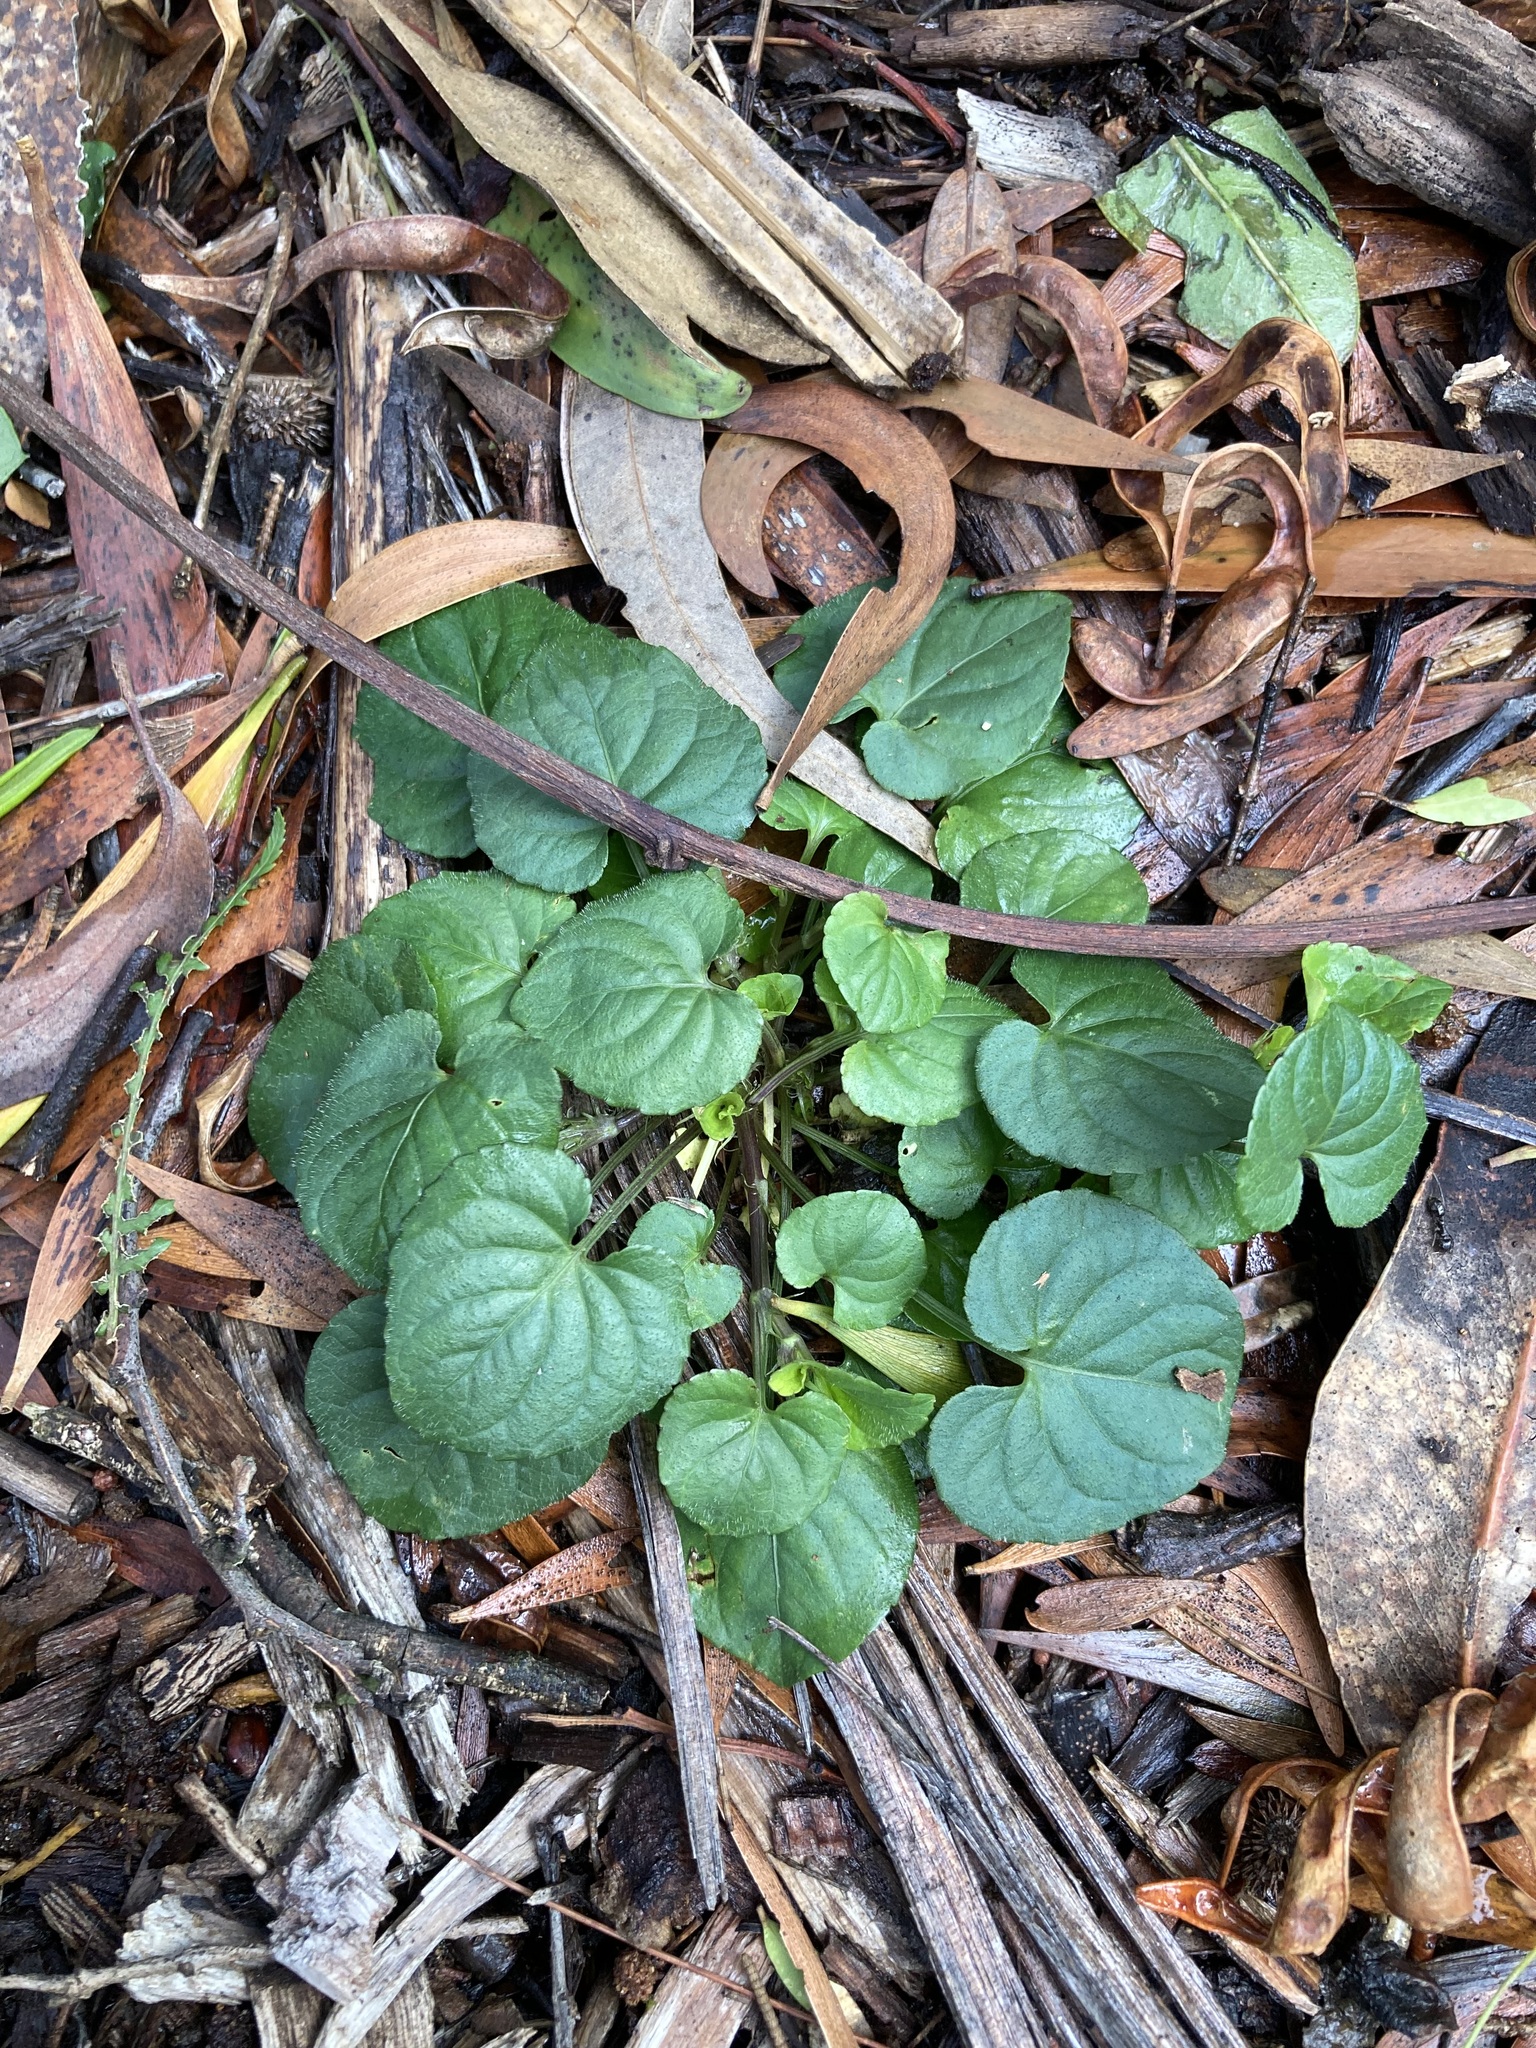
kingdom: Plantae
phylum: Tracheophyta
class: Magnoliopsida
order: Malpighiales
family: Violaceae
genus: Viola
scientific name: Viola odorata
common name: Sweet violet
